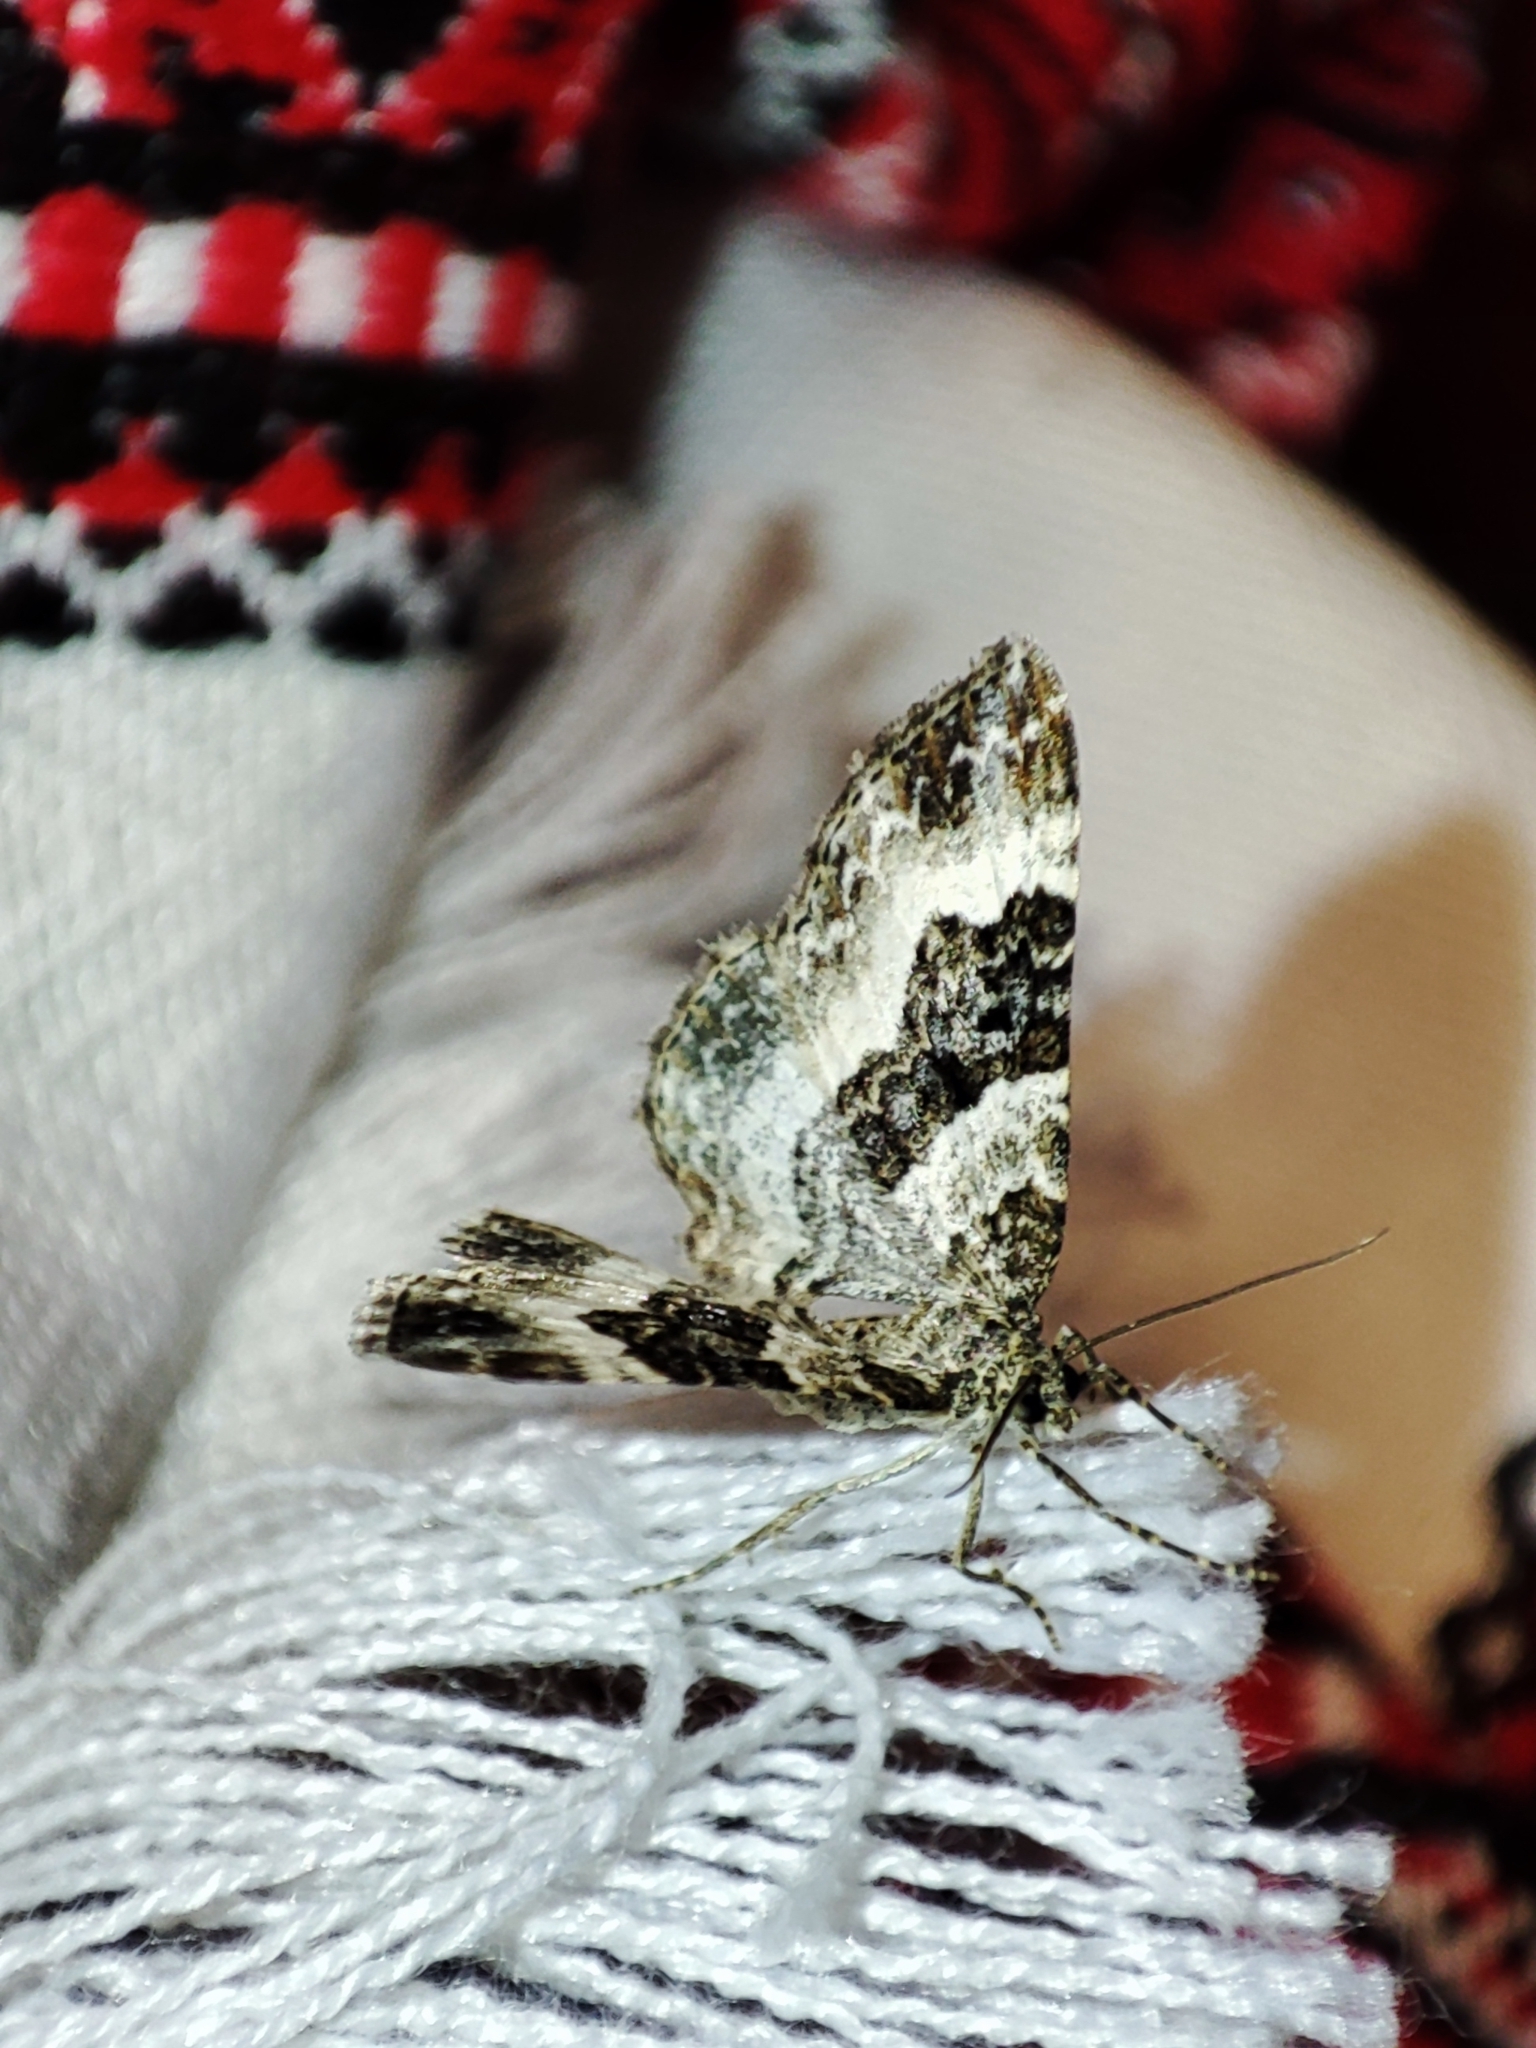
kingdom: Animalia
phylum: Arthropoda
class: Insecta
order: Lepidoptera
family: Geometridae
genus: Epirrhoe
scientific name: Epirrhoe alternata
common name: Common carpet
